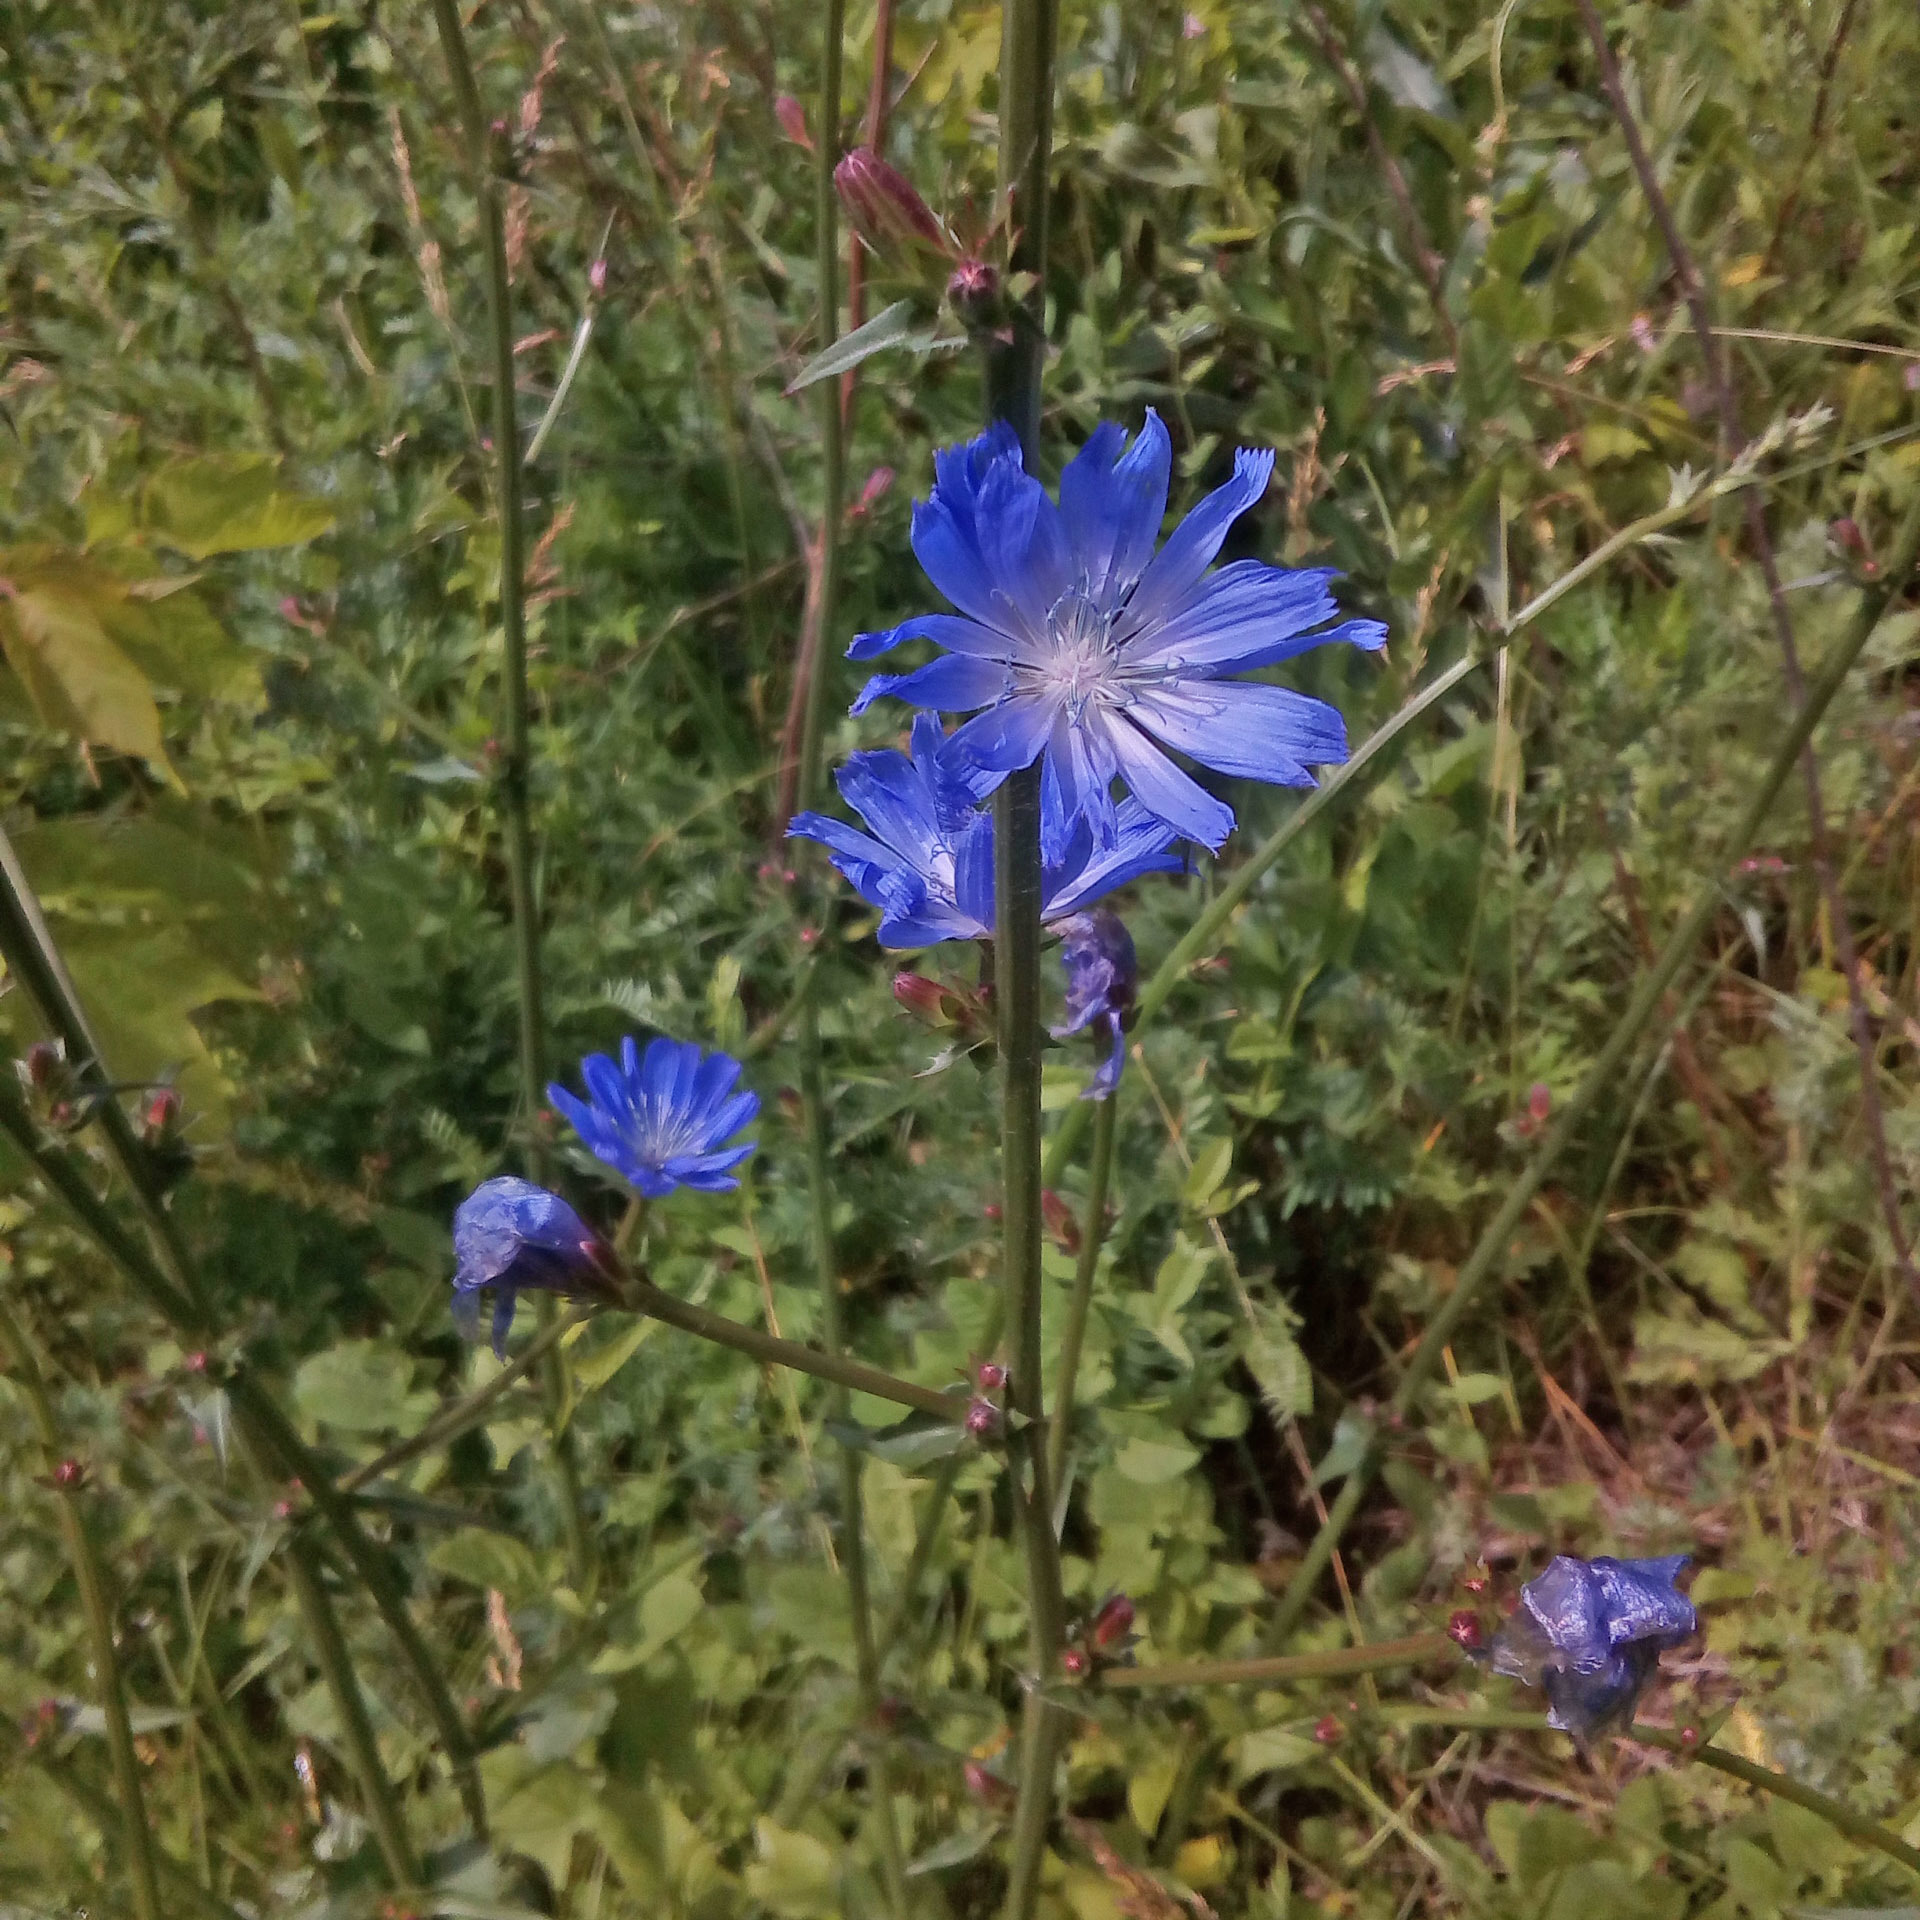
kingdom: Plantae
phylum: Tracheophyta
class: Magnoliopsida
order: Asterales
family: Asteraceae
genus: Cichorium
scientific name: Cichorium intybus
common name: Chicory
